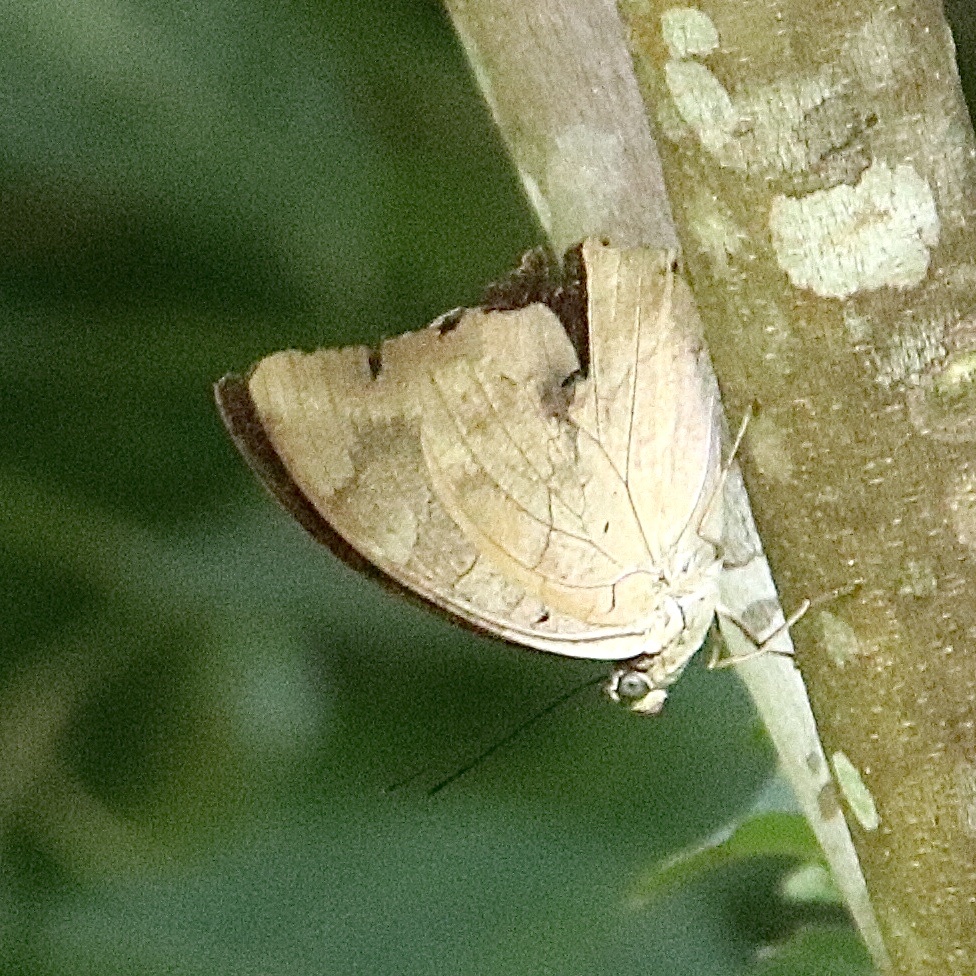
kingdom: Animalia
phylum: Arthropoda
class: Insecta
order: Lepidoptera
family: Nymphalidae
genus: Prepona
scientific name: Prepona demophon
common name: One-spotted prepona
